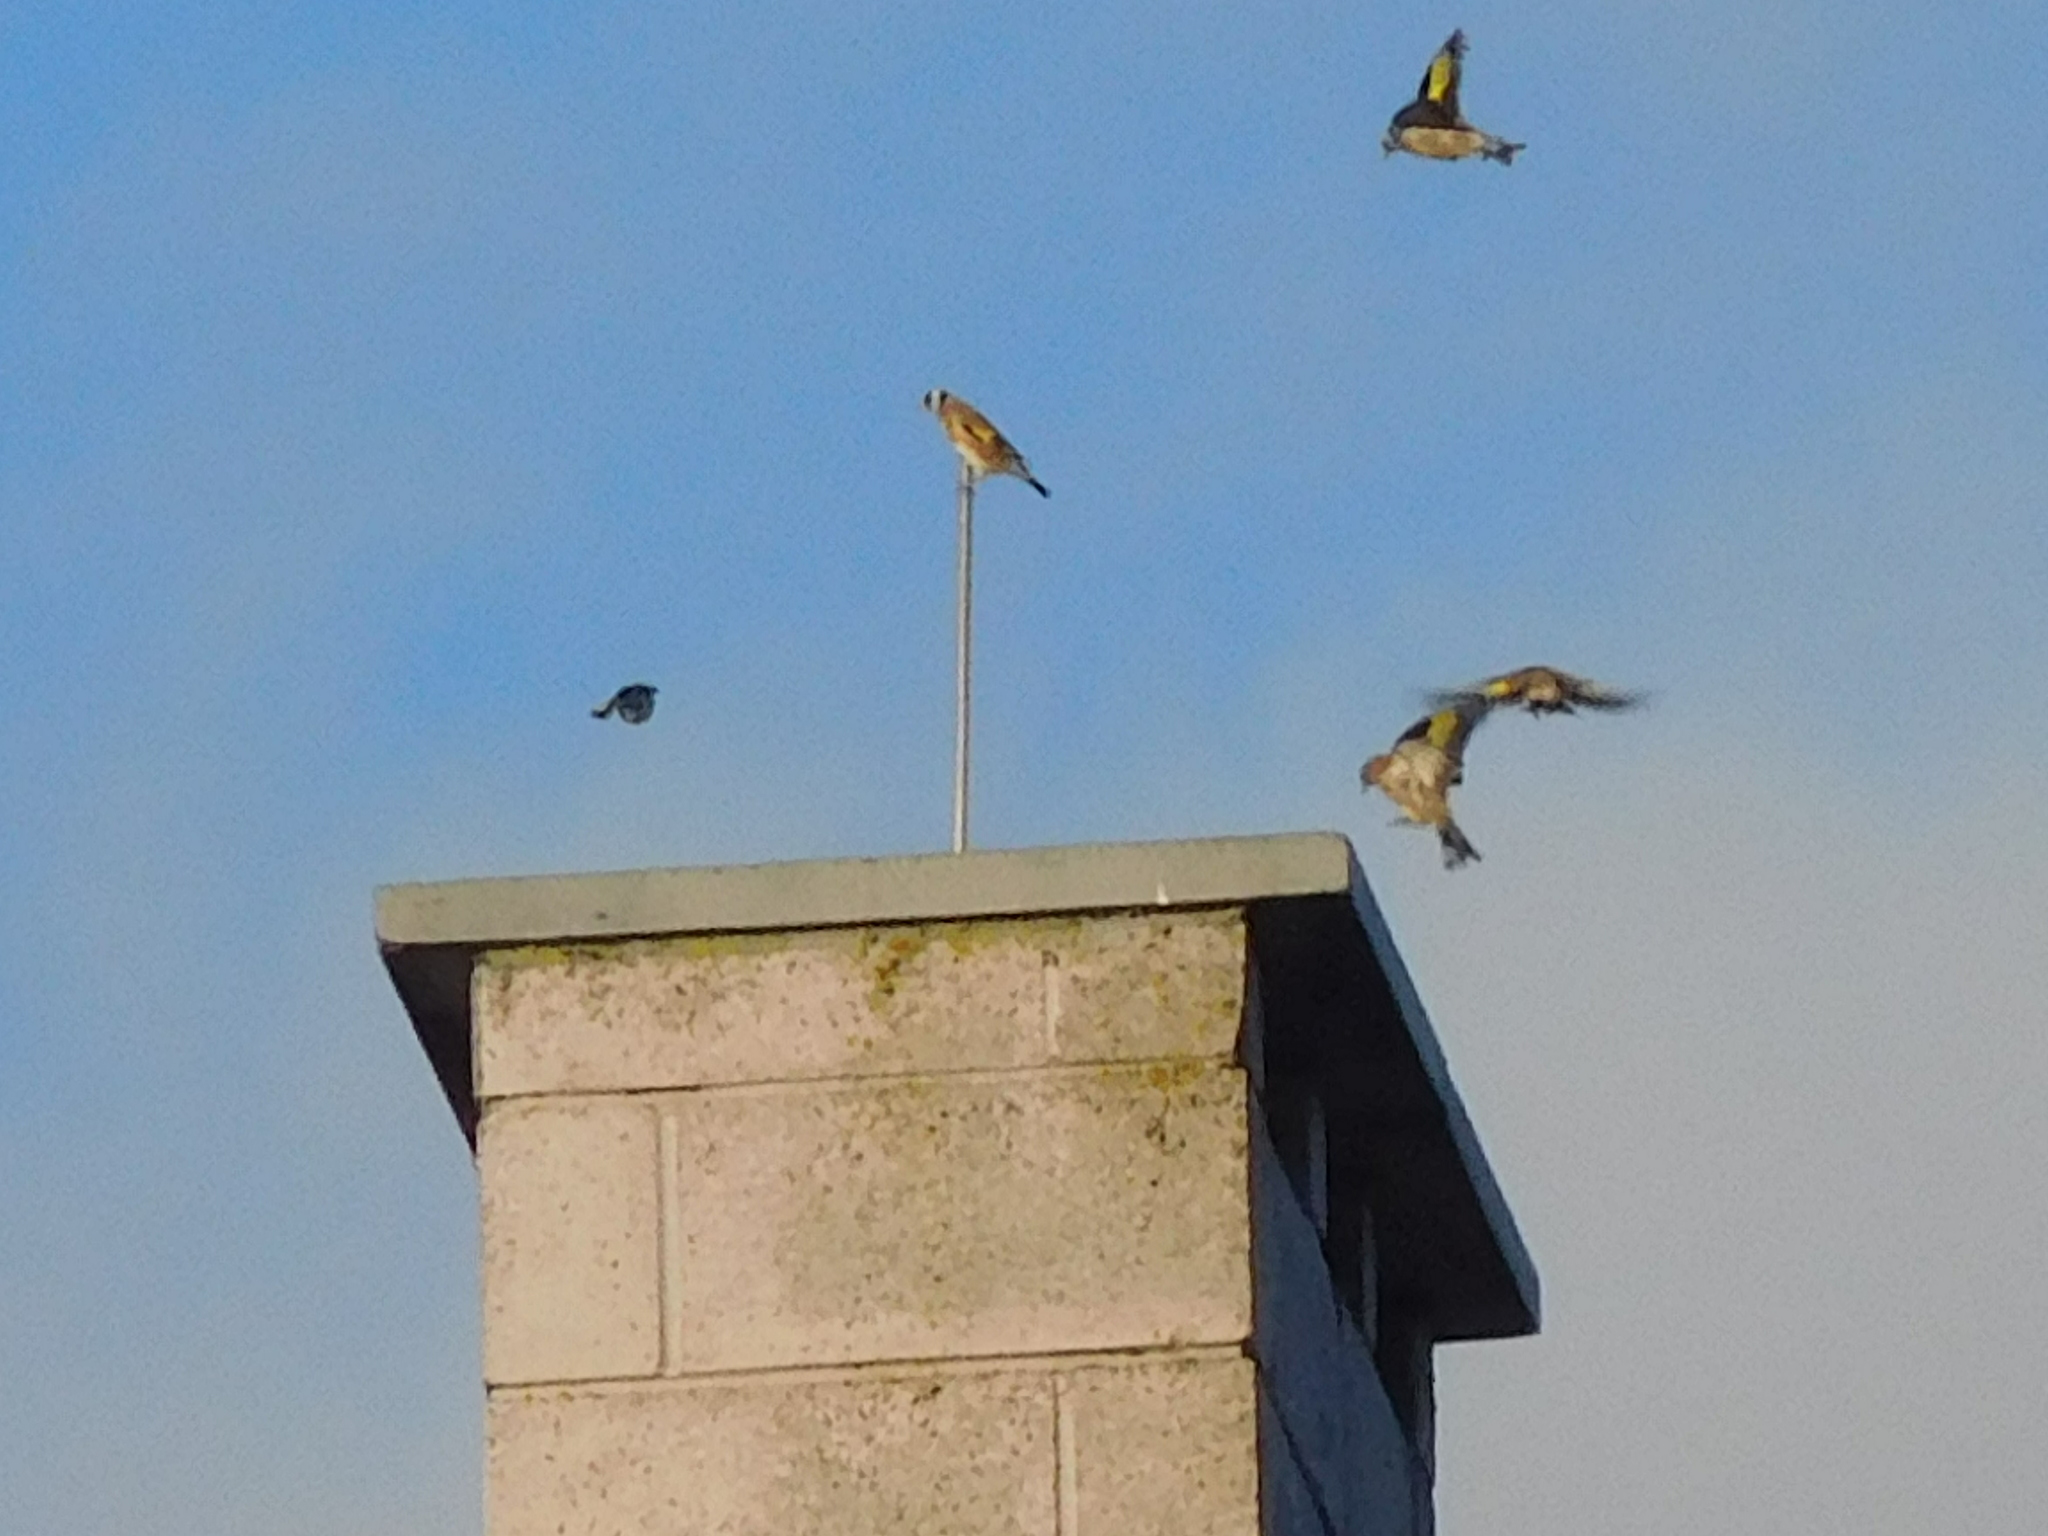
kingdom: Animalia
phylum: Chordata
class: Aves
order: Passeriformes
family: Fringillidae
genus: Carduelis
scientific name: Carduelis carduelis
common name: European goldfinch
